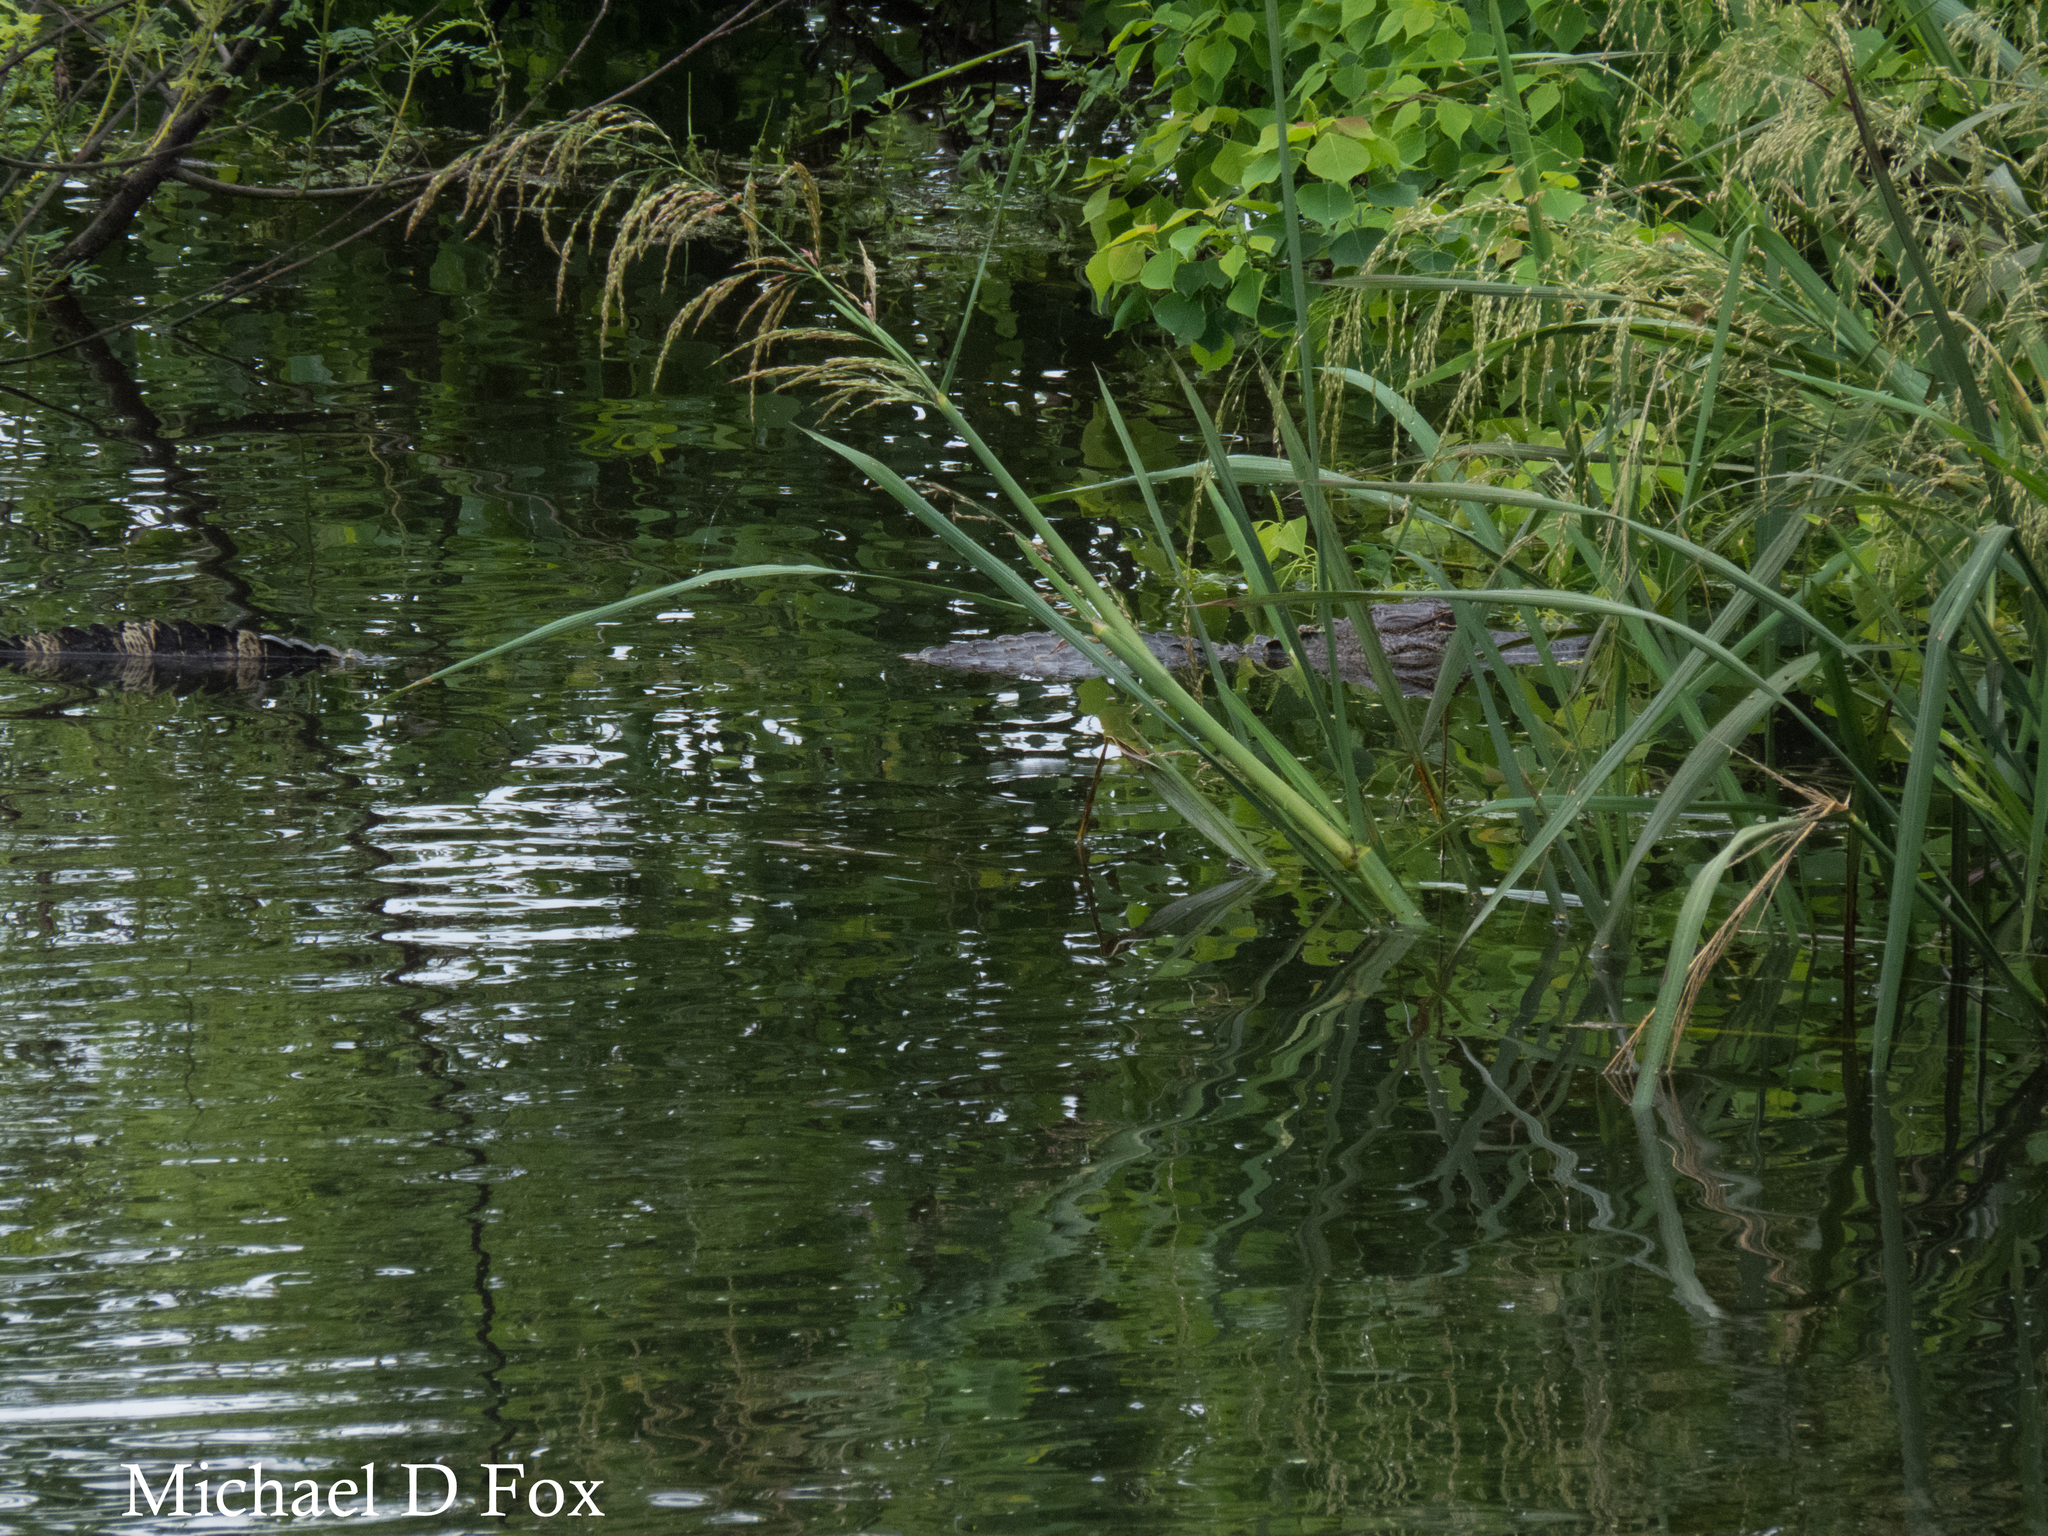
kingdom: Animalia
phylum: Chordata
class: Crocodylia
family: Alligatoridae
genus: Alligator
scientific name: Alligator mississippiensis
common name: American alligator
